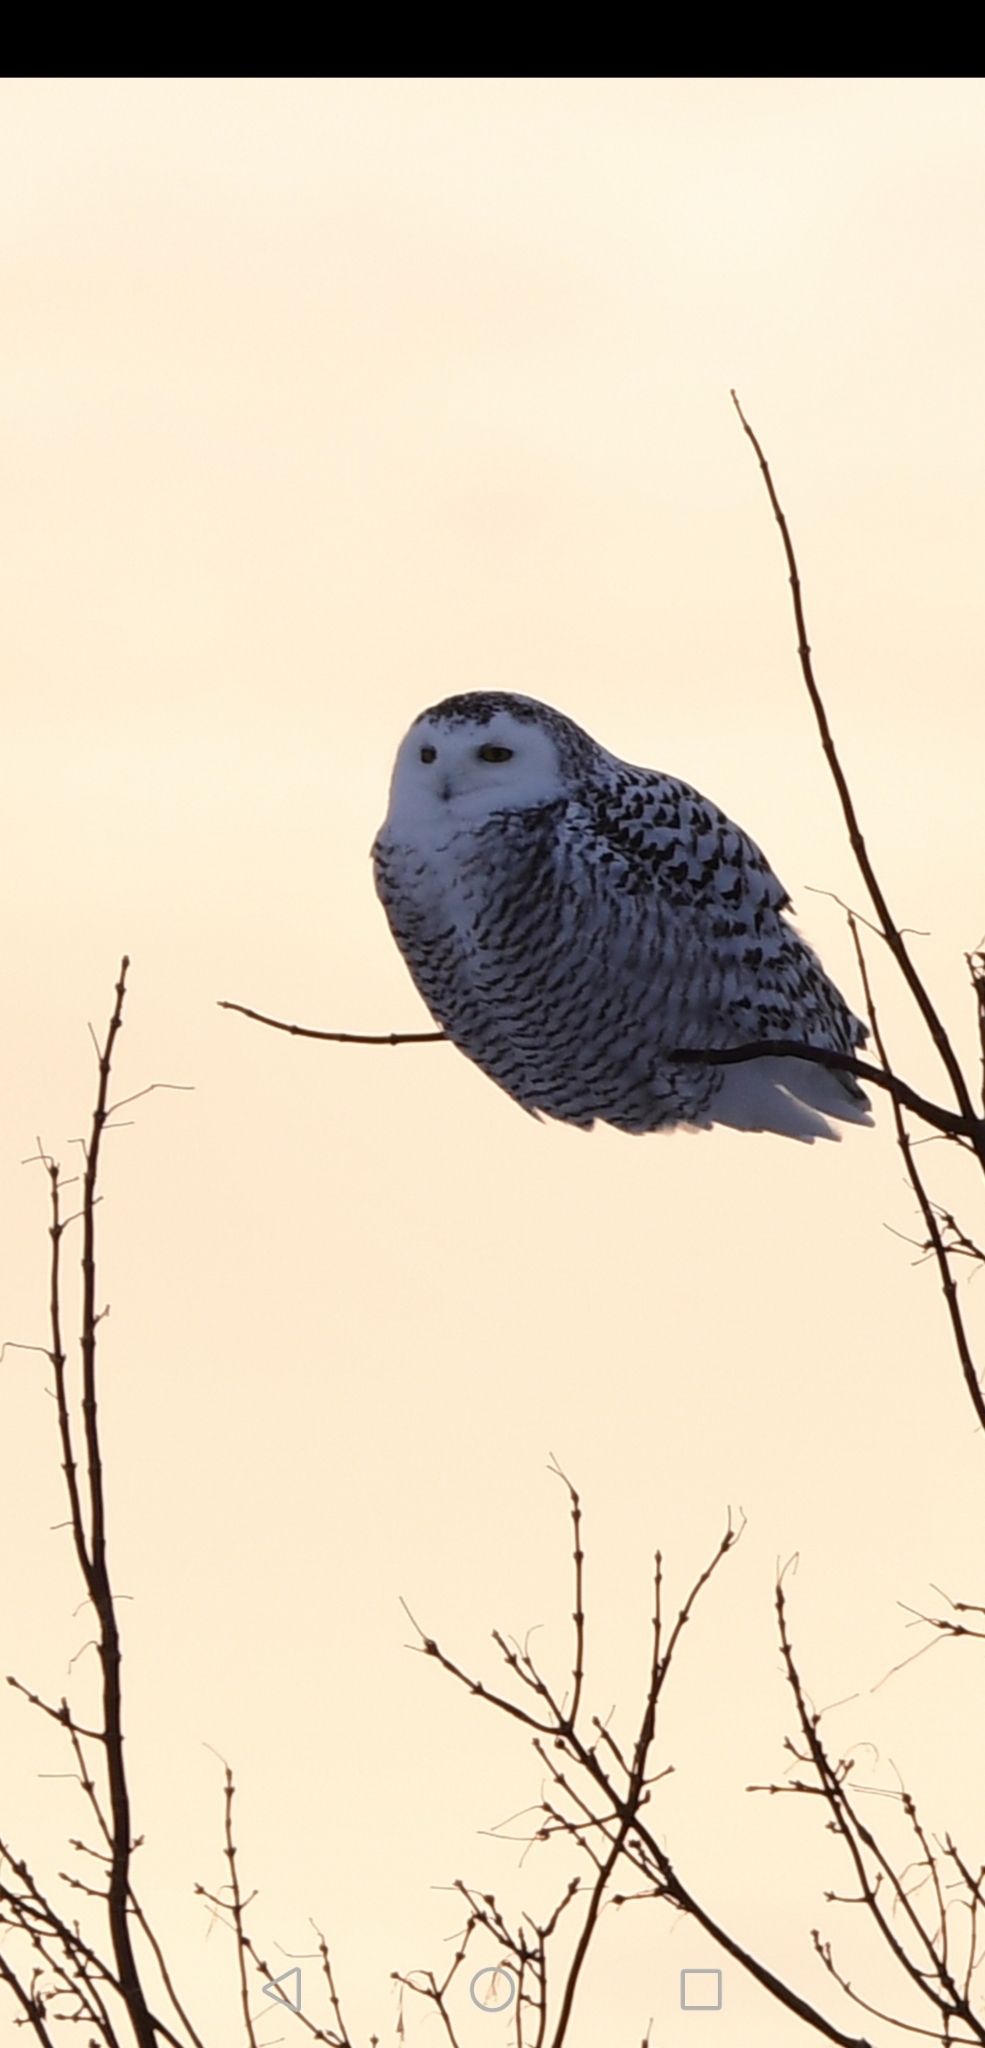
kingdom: Animalia
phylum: Chordata
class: Aves
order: Strigiformes
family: Strigidae
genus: Bubo
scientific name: Bubo scandiacus
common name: Snowy owl
